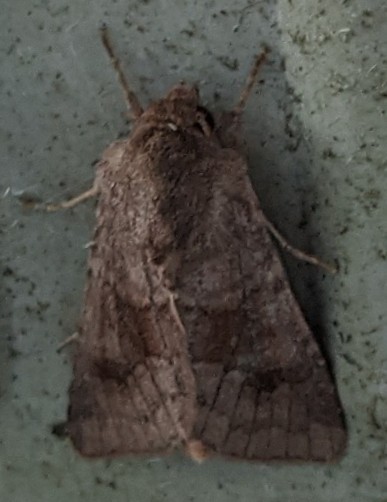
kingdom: Animalia
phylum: Arthropoda
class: Insecta
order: Lepidoptera
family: Noctuidae
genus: Nephelodes
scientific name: Nephelodes minians
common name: Bronzed cutworm
